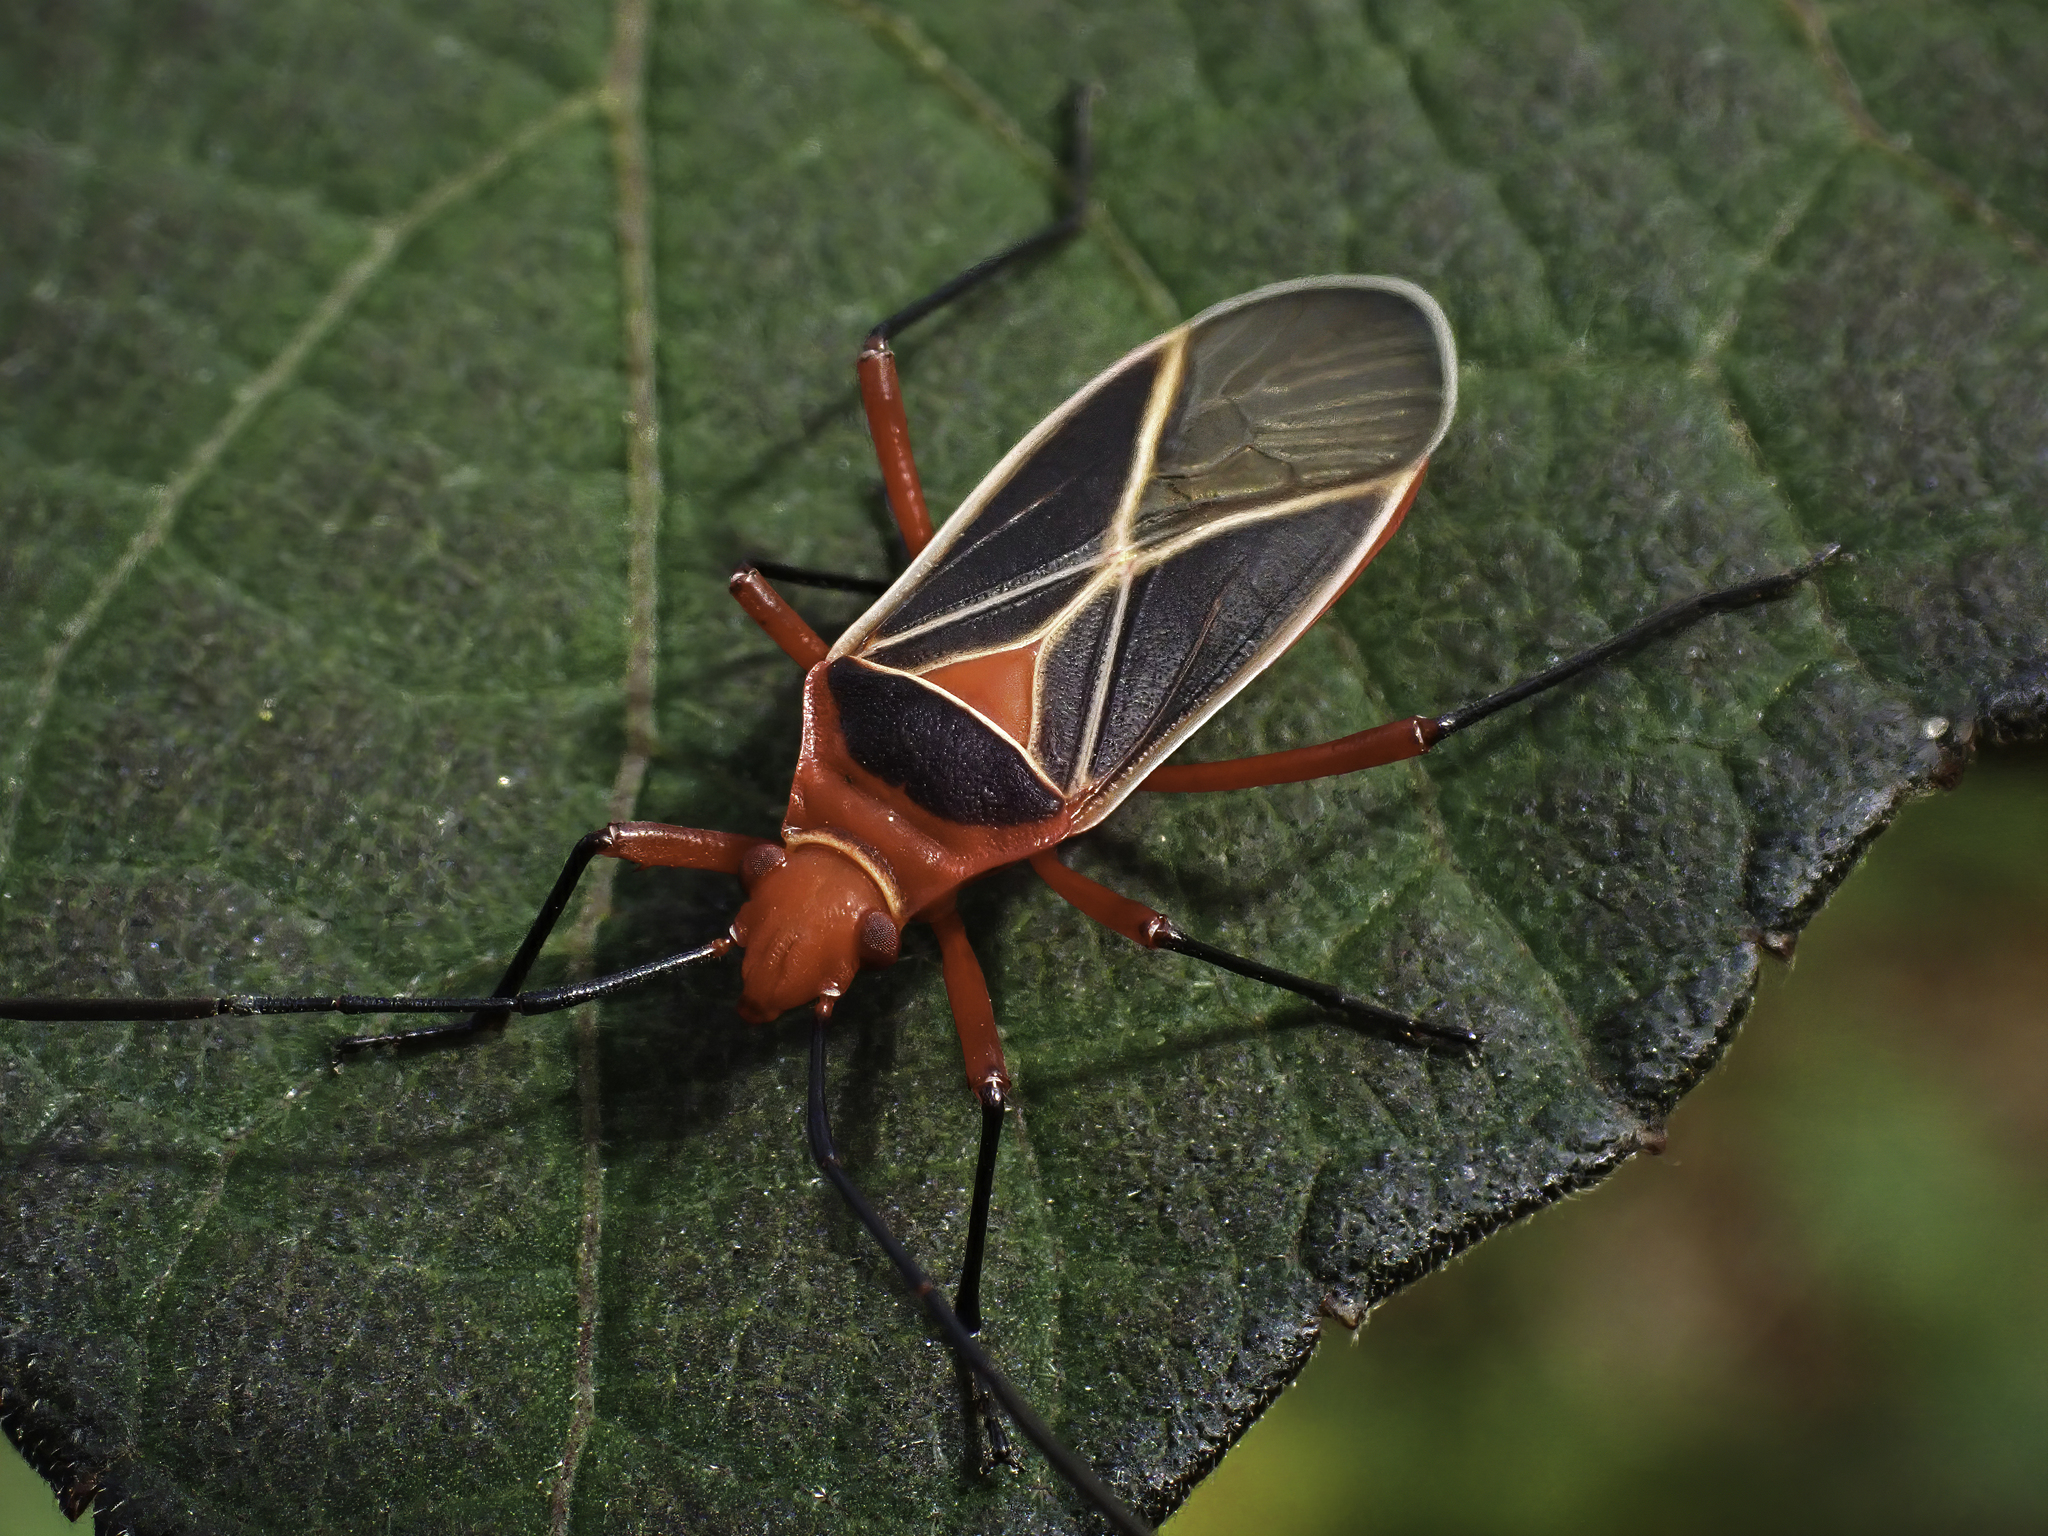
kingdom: Animalia
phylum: Arthropoda
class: Insecta
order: Hemiptera
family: Pyrrhocoridae
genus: Dysdercus
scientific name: Dysdercus suturellus
